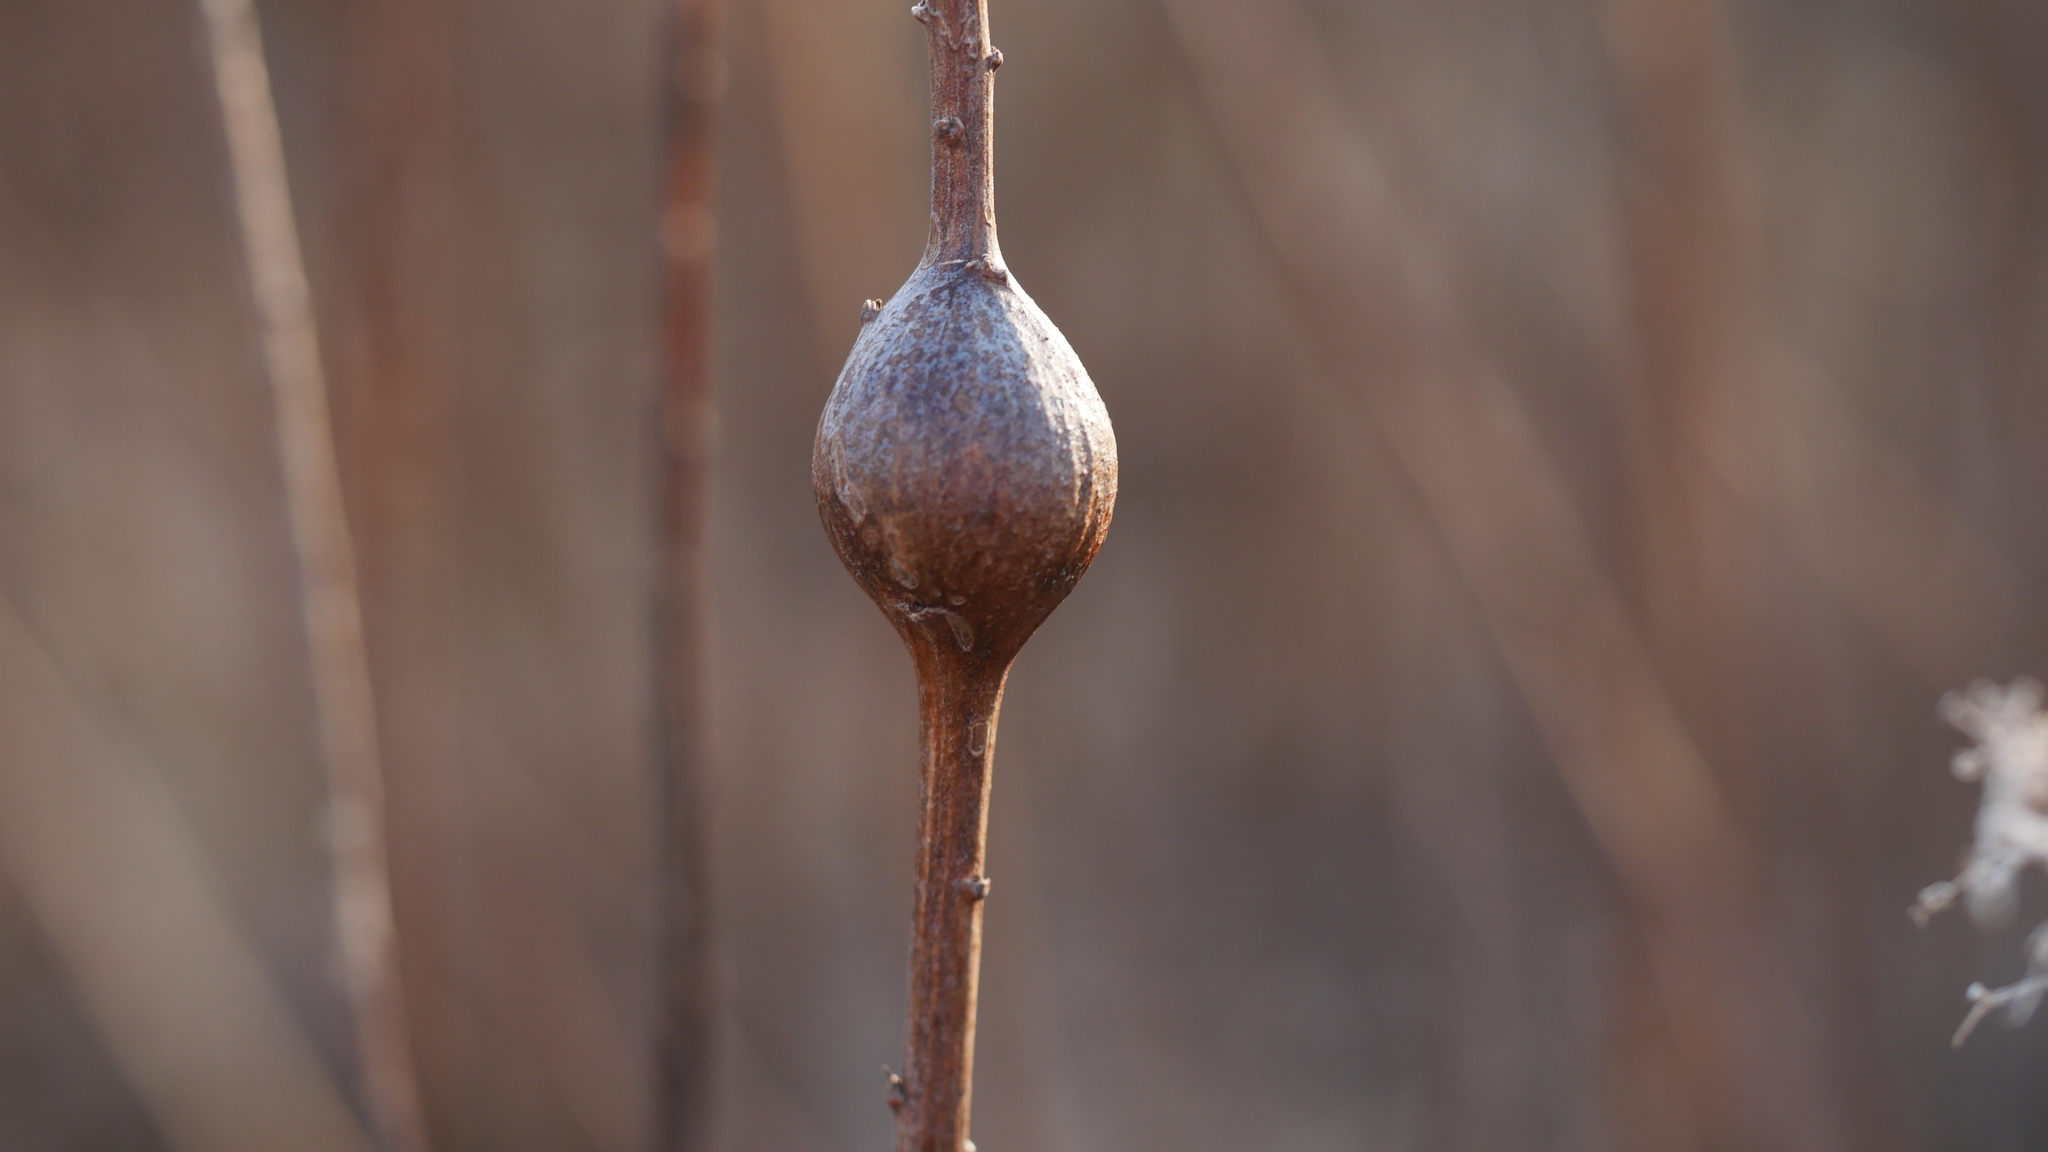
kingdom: Animalia
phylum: Arthropoda
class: Insecta
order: Diptera
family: Tephritidae
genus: Eurosta
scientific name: Eurosta solidaginis
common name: Goldenrod gall fly
